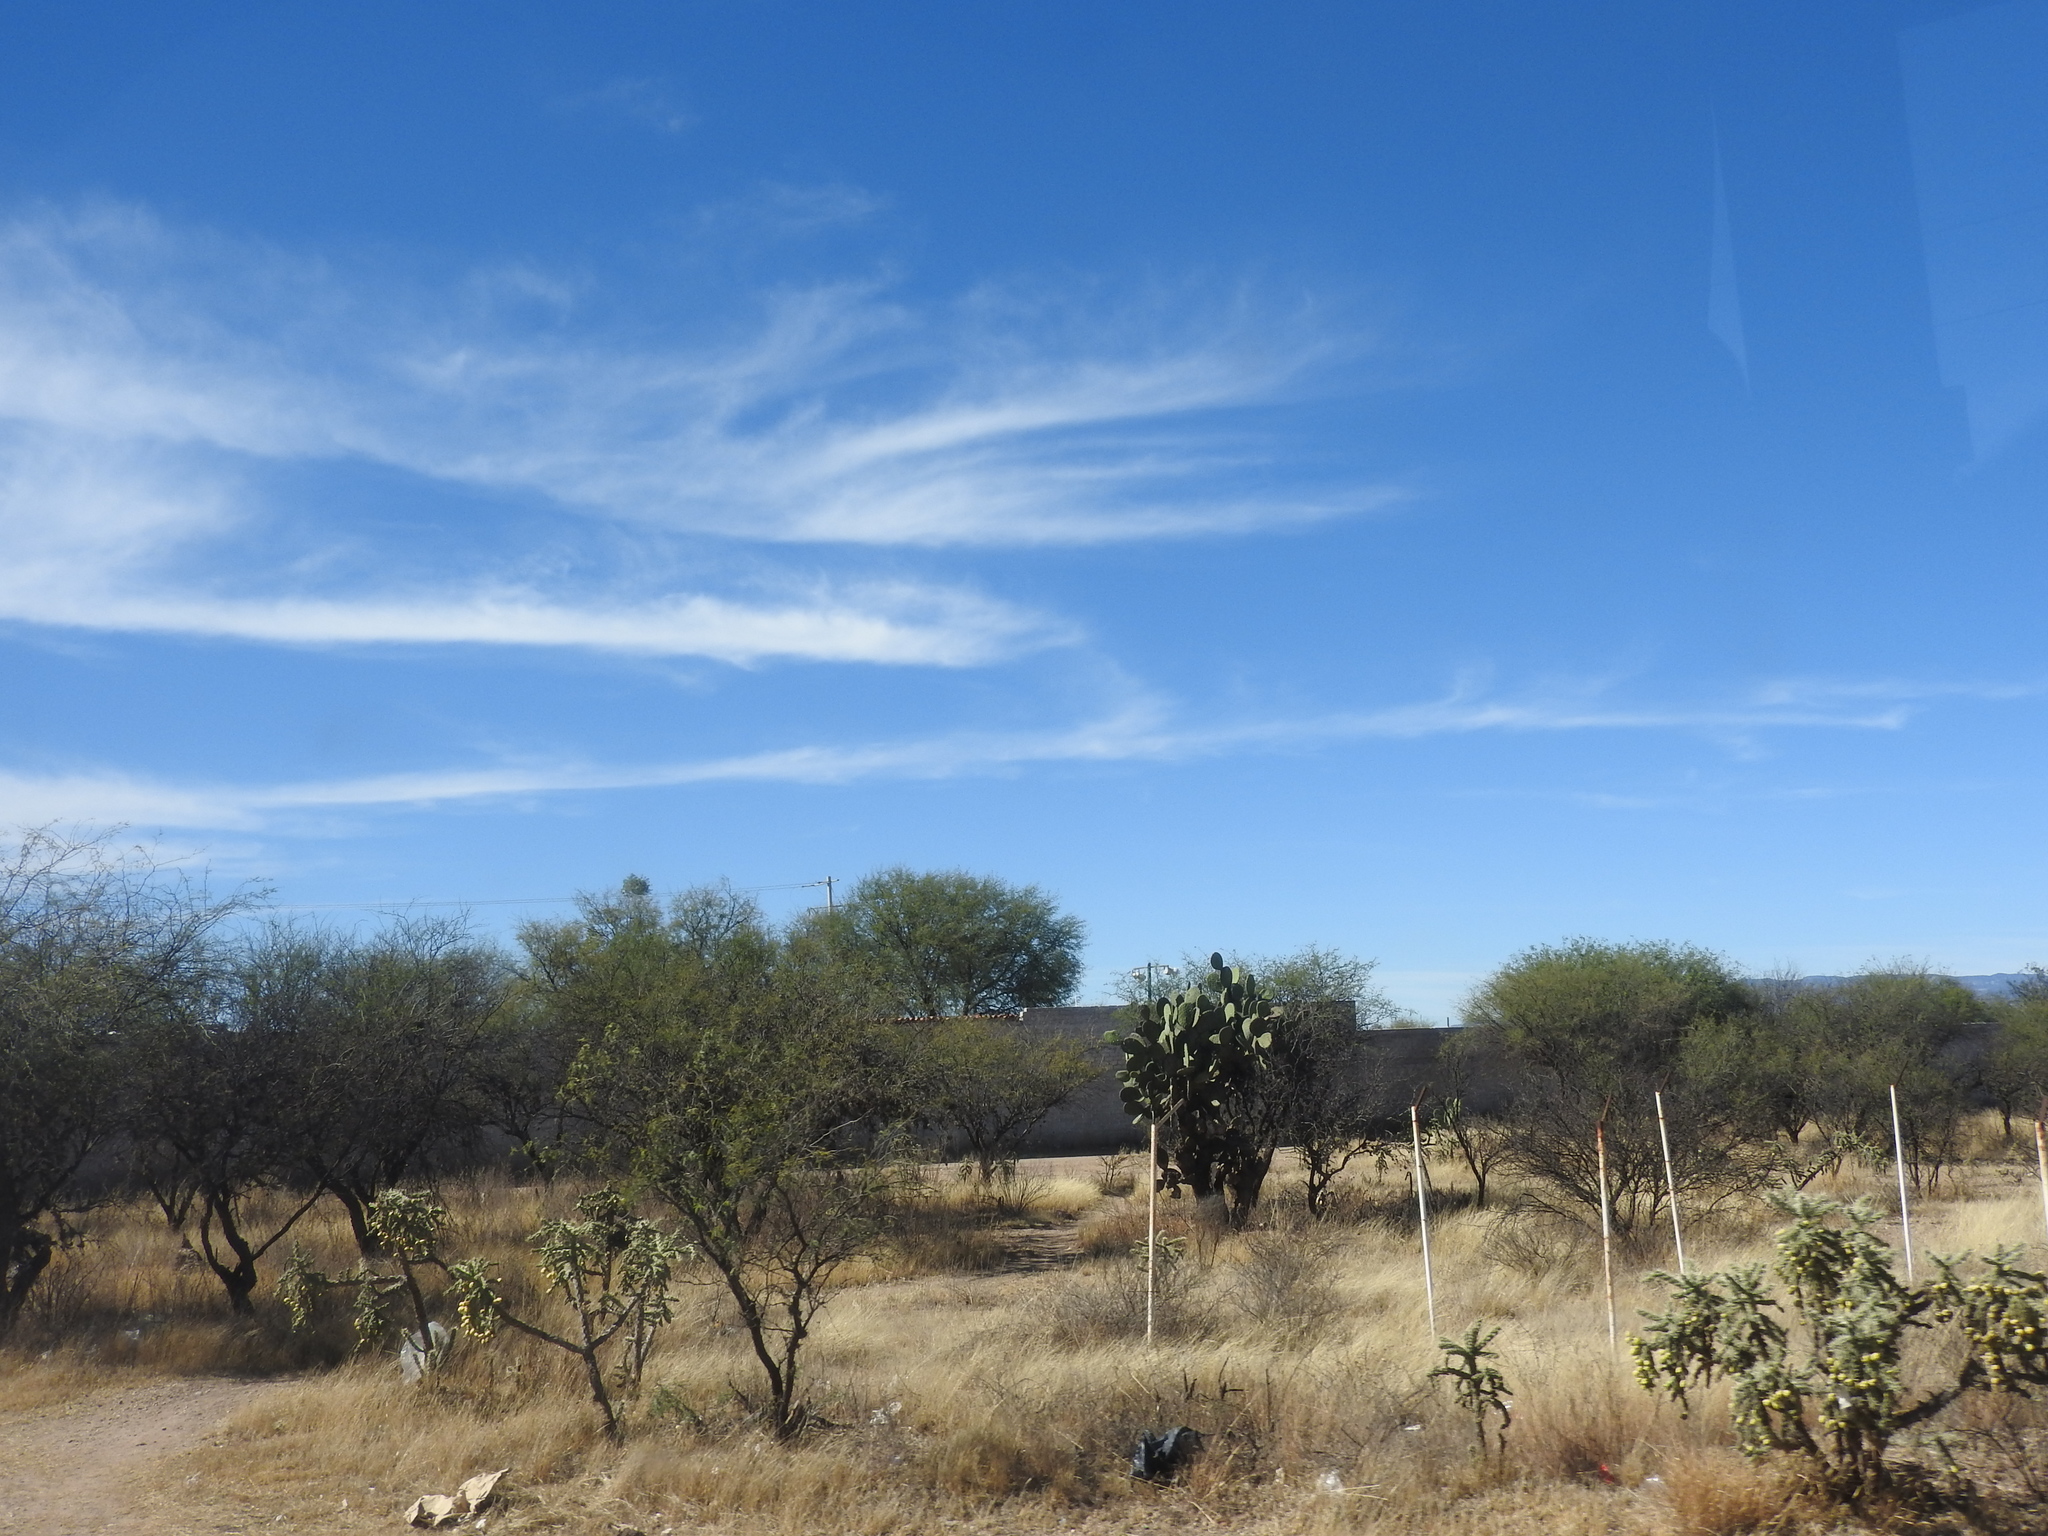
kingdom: Plantae
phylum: Tracheophyta
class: Magnoliopsida
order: Caryophyllales
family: Cactaceae
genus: Cylindropuntia
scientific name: Cylindropuntia imbricata
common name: Candelabrum cactus
